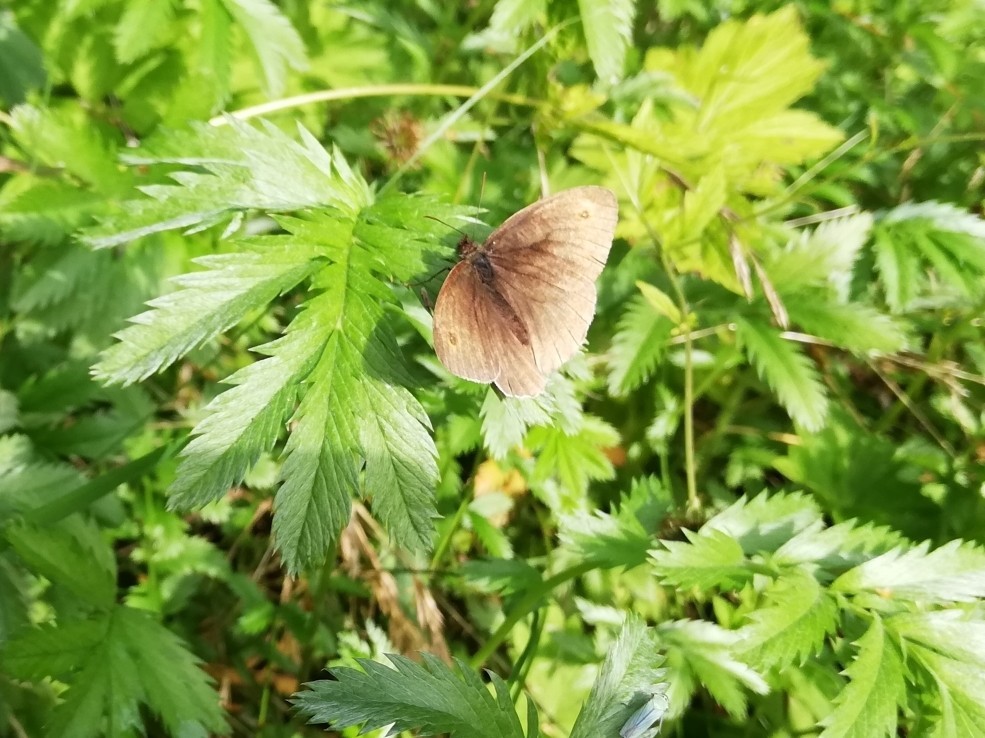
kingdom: Animalia
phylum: Arthropoda
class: Insecta
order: Lepidoptera
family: Nymphalidae
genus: Maniola
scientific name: Maniola jurtina
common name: Meadow brown
